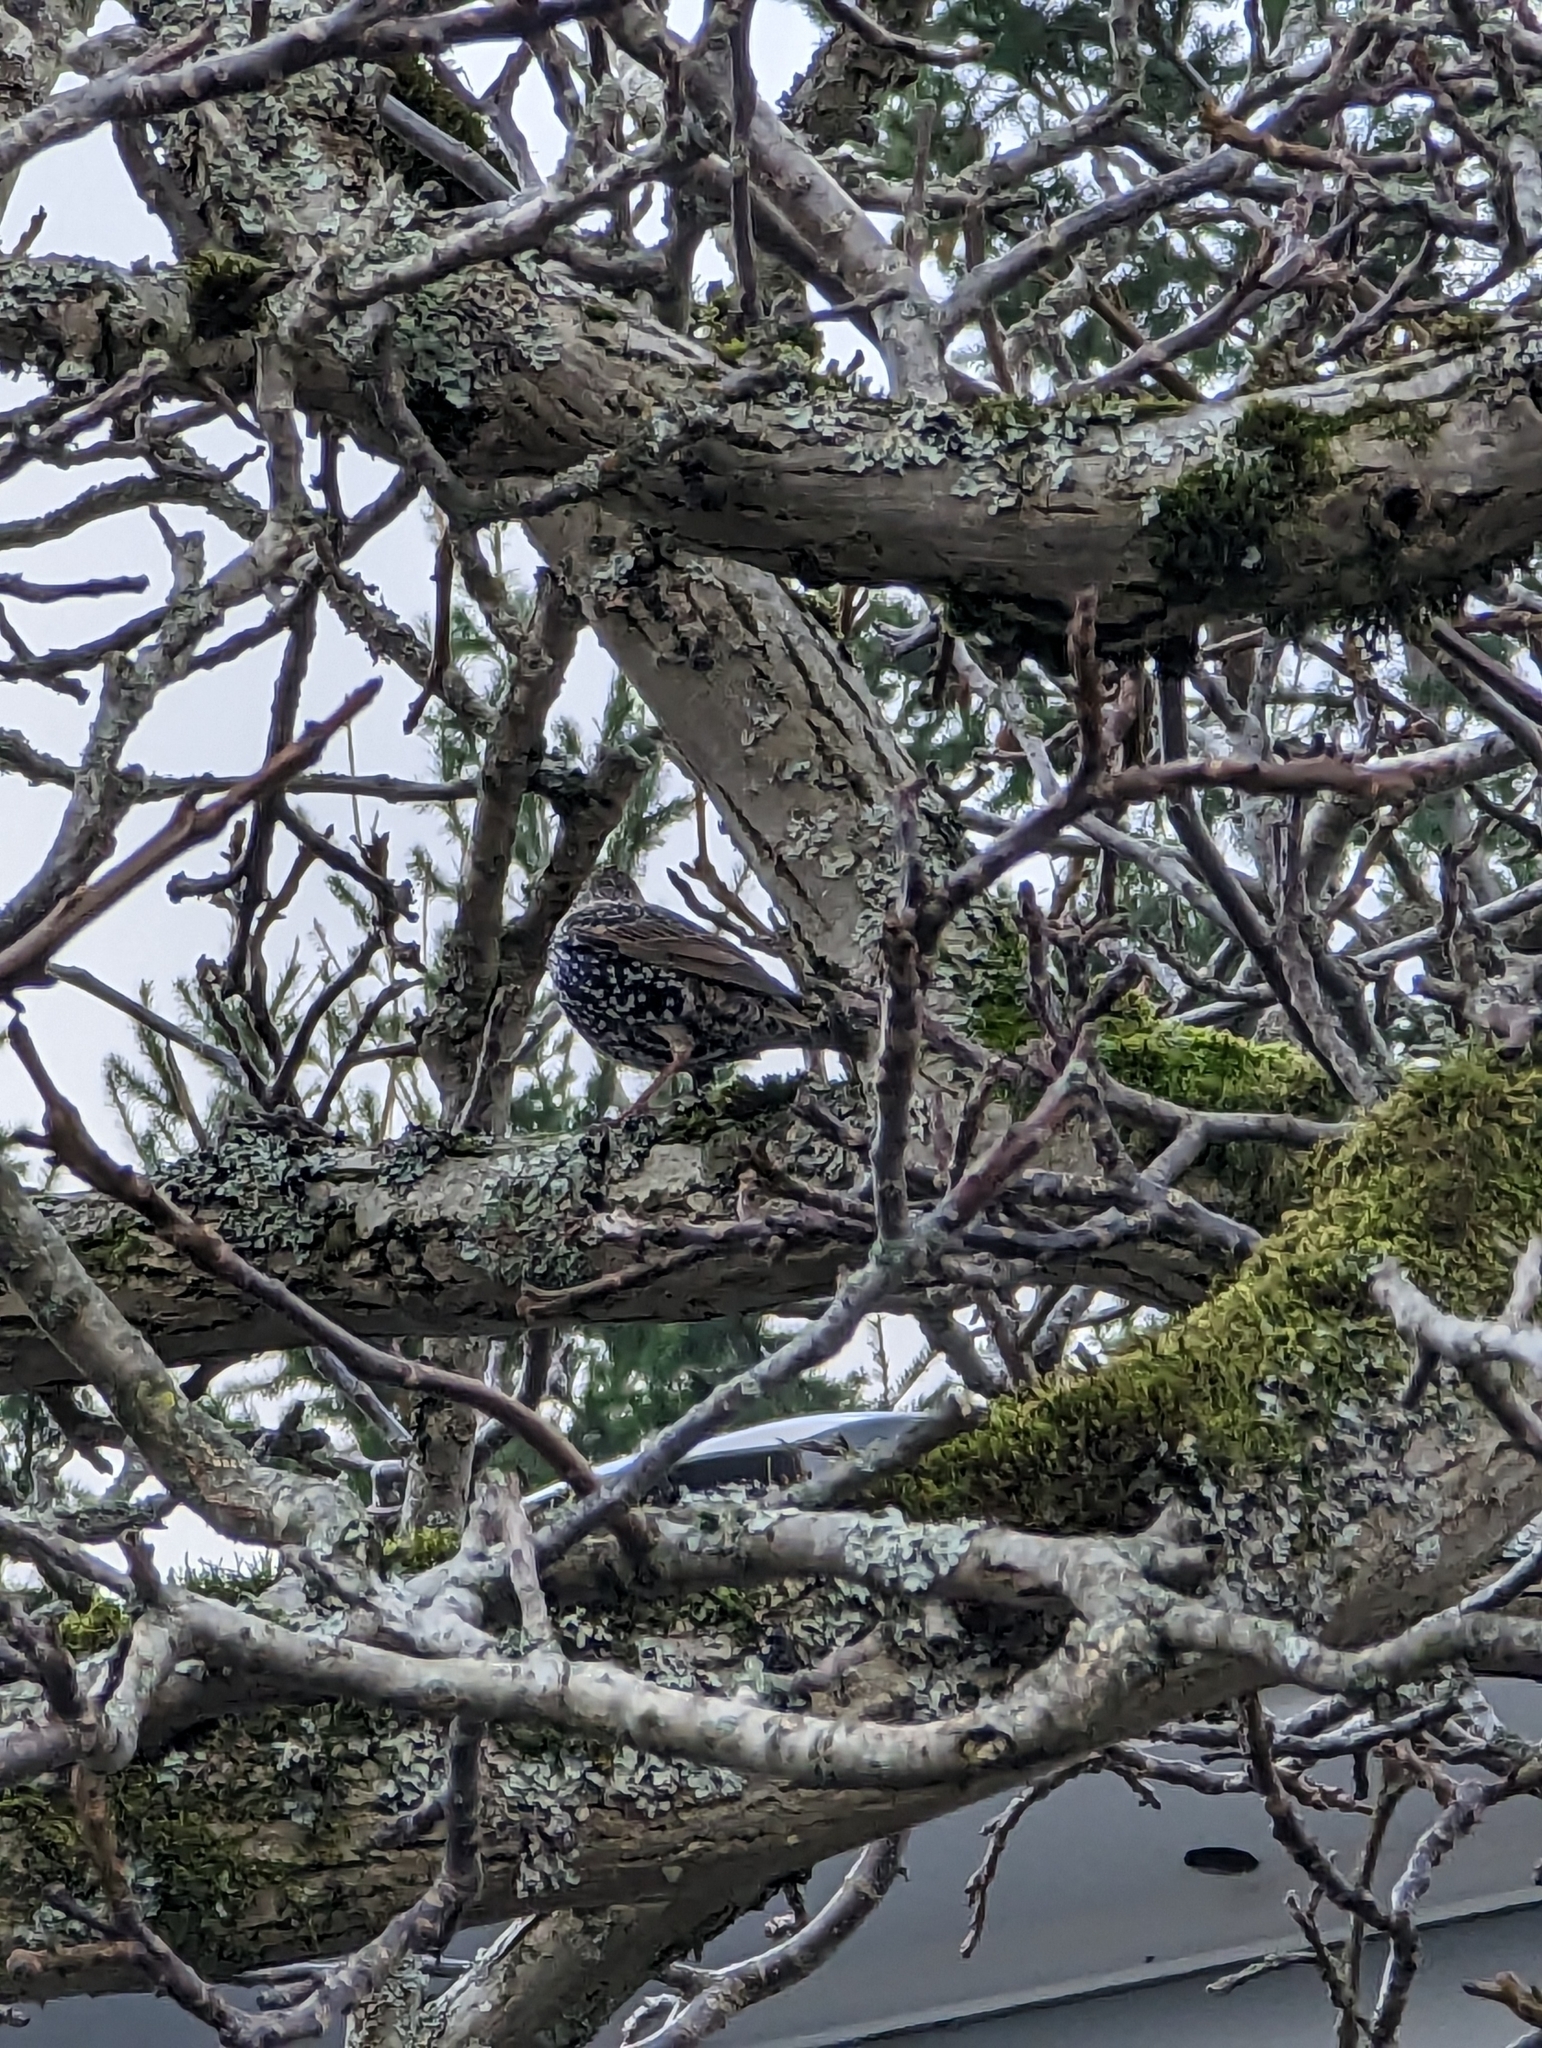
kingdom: Animalia
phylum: Chordata
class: Aves
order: Passeriformes
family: Sturnidae
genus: Sturnus
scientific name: Sturnus vulgaris
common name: Common starling
